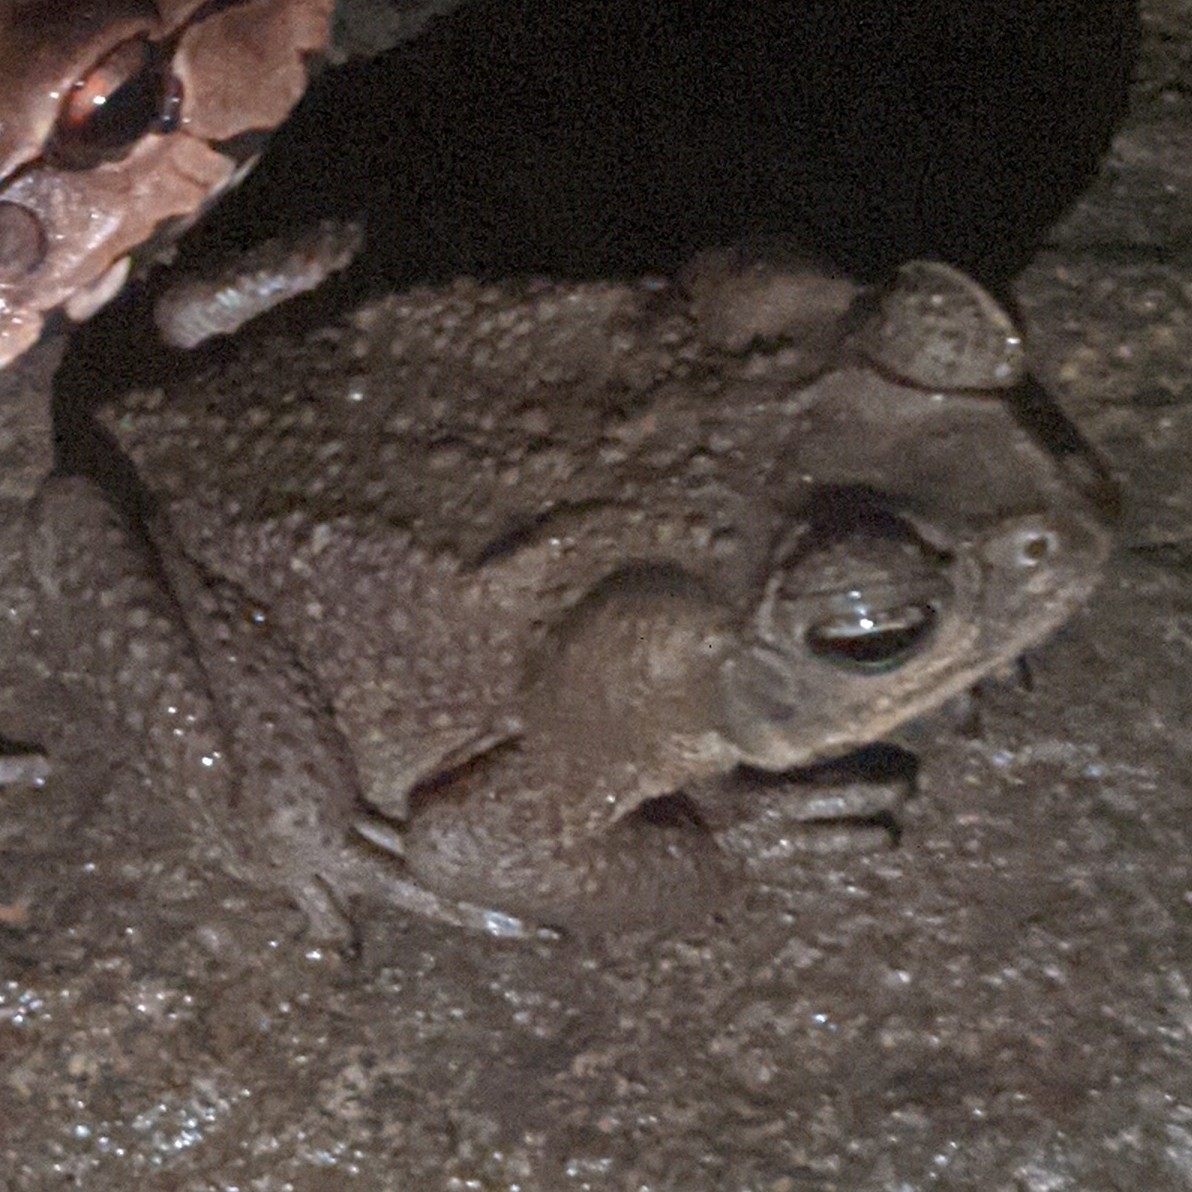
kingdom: Animalia
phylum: Chordata
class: Amphibia
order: Anura
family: Bufonidae
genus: Rhinella
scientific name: Rhinella horribilis
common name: Mesoamerican cane toad
